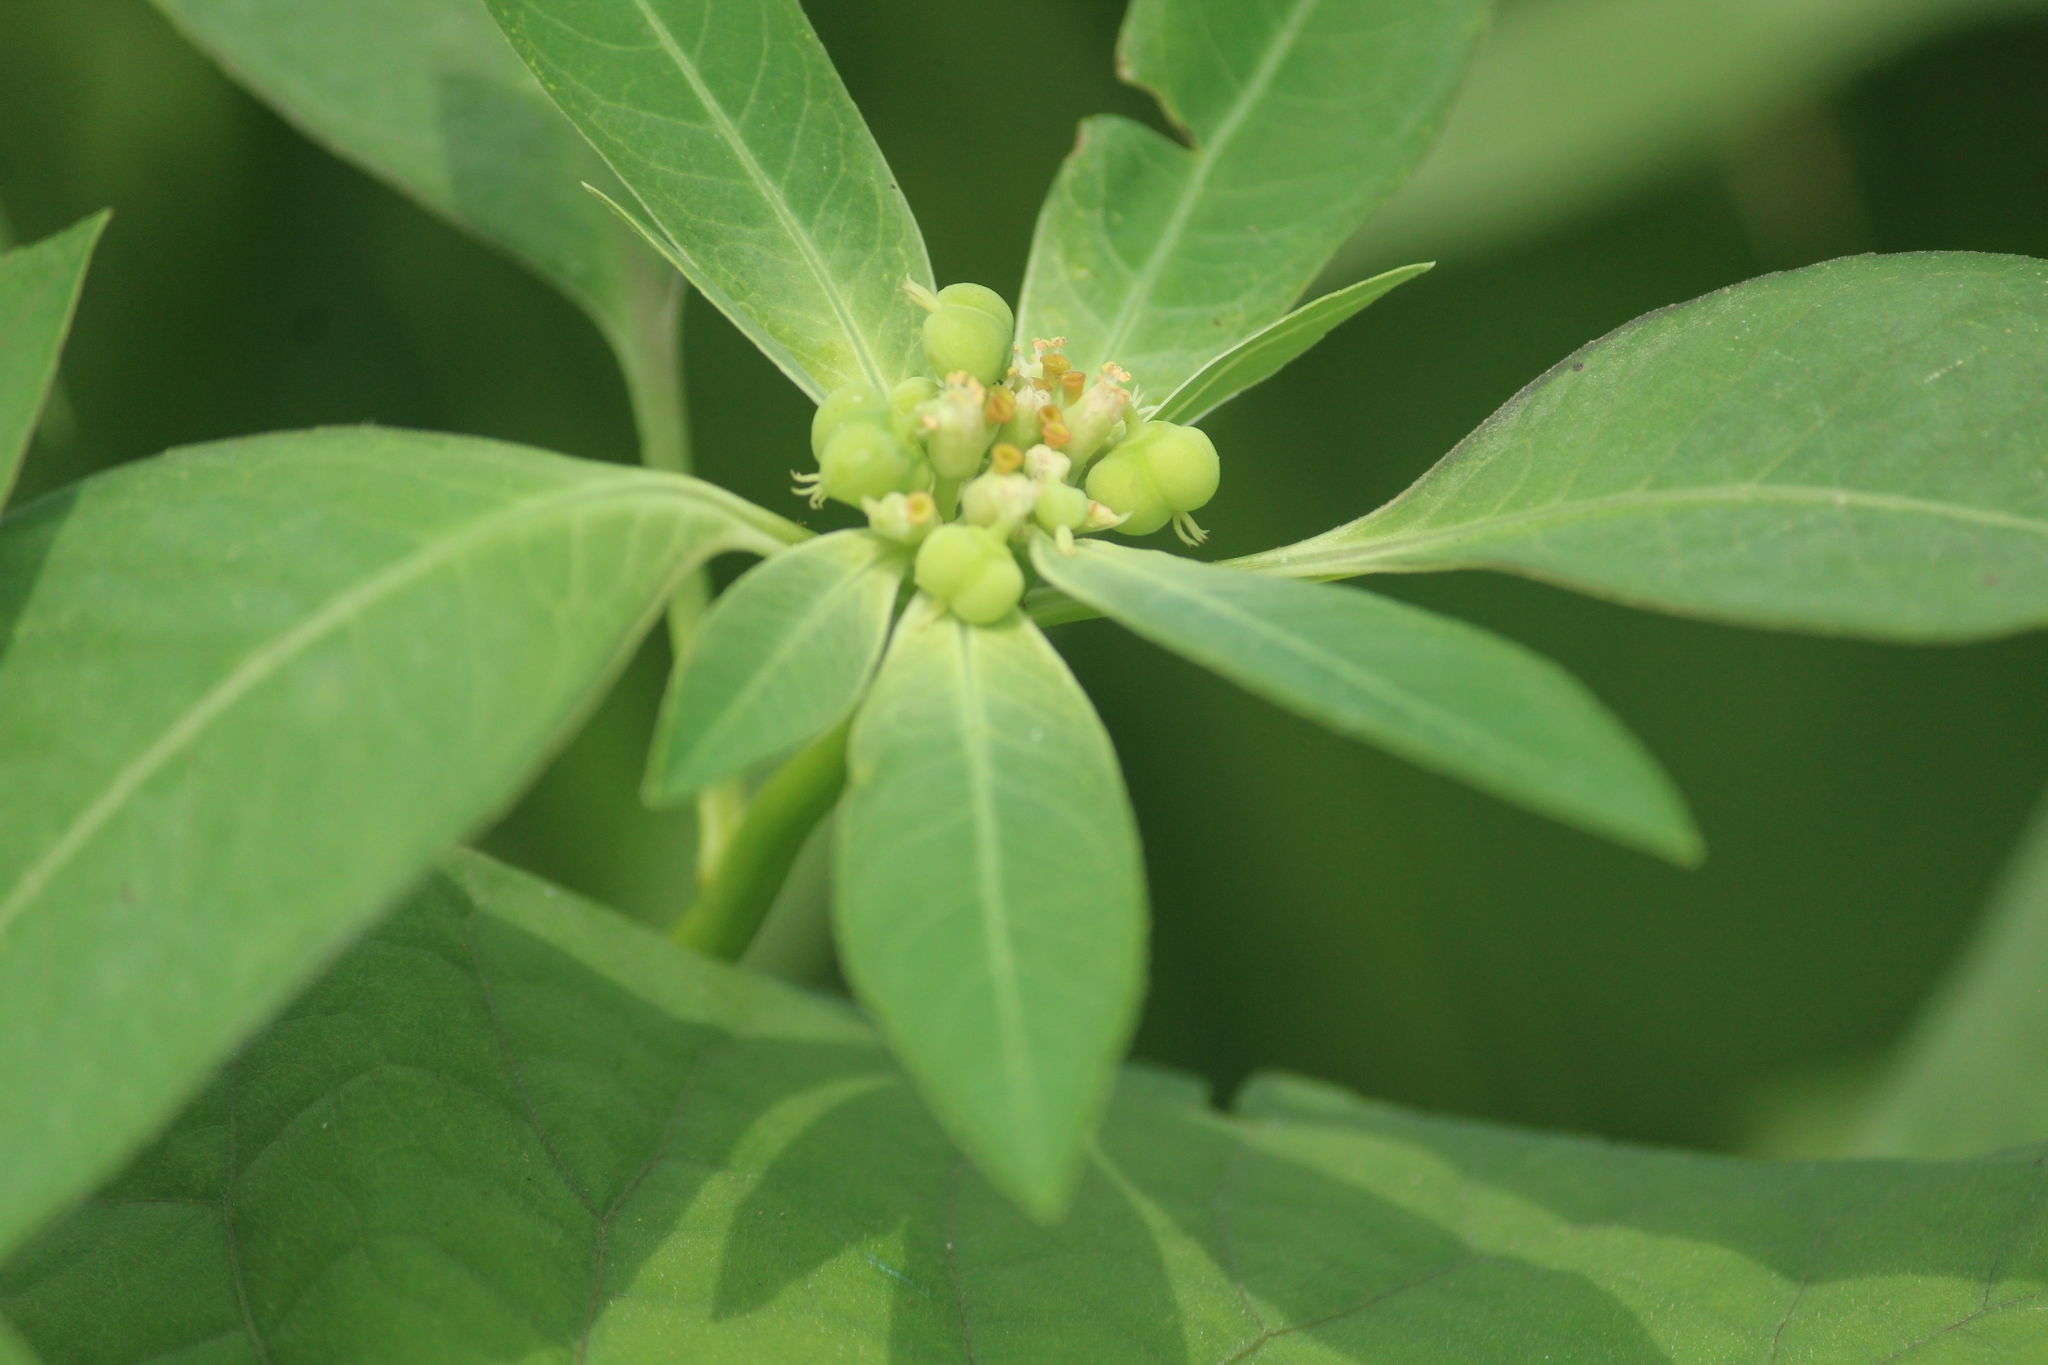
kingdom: Plantae
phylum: Tracheophyta
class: Magnoliopsida
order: Malpighiales
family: Euphorbiaceae
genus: Euphorbia
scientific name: Euphorbia heterophylla
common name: Mexican fireplant
